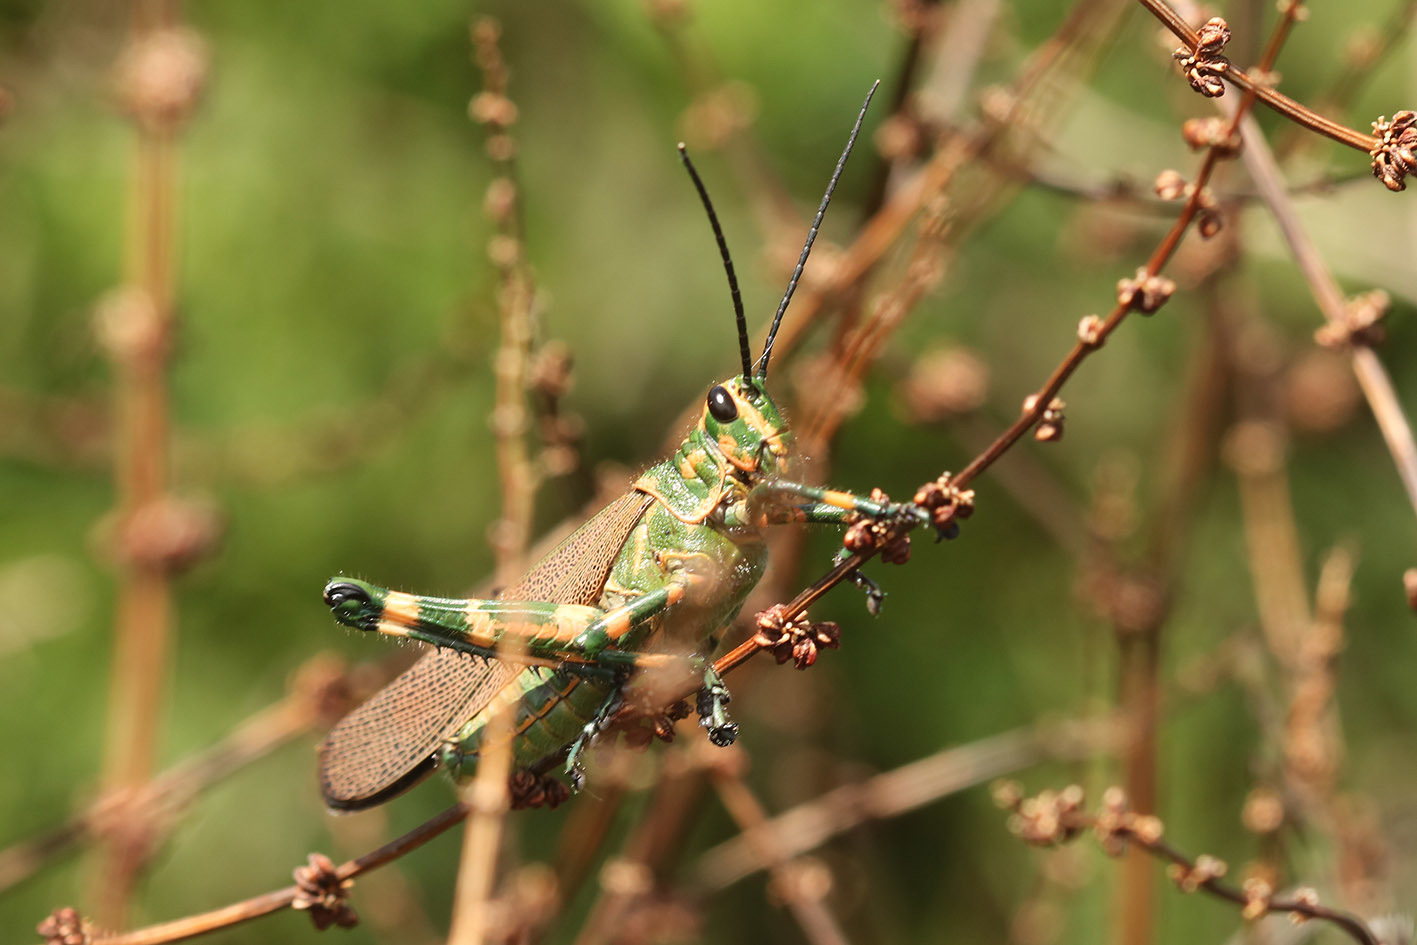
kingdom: Animalia
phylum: Arthropoda
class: Insecta
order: Orthoptera
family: Romaleidae
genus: Chromacris
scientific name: Chromacris speciosa
